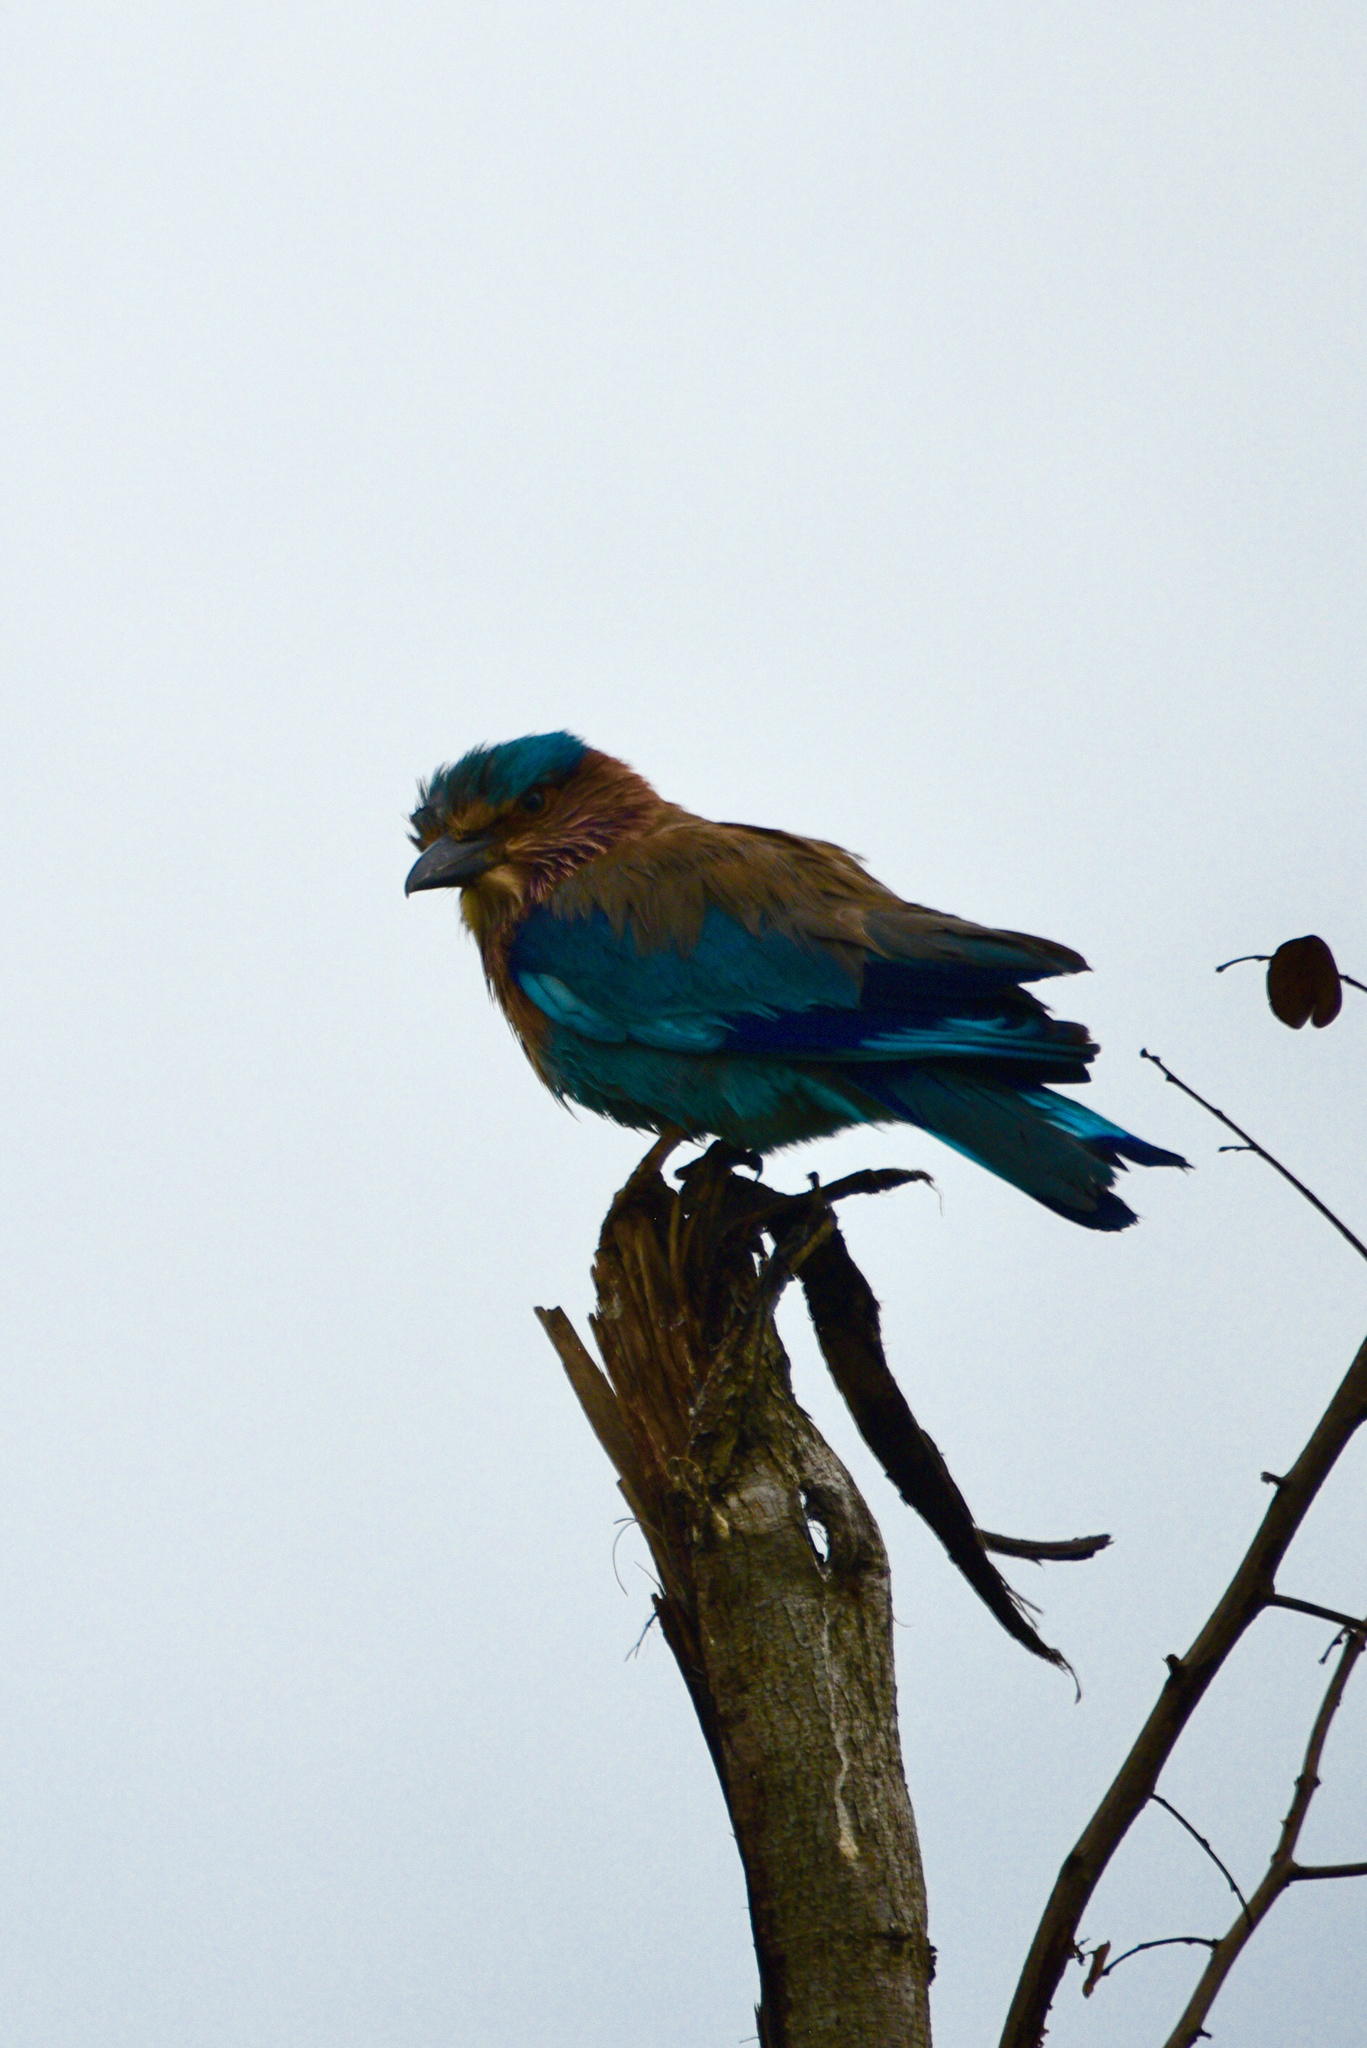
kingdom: Animalia
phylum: Chordata
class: Aves
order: Coraciiformes
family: Coraciidae
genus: Coracias
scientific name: Coracias benghalensis
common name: Indian roller
